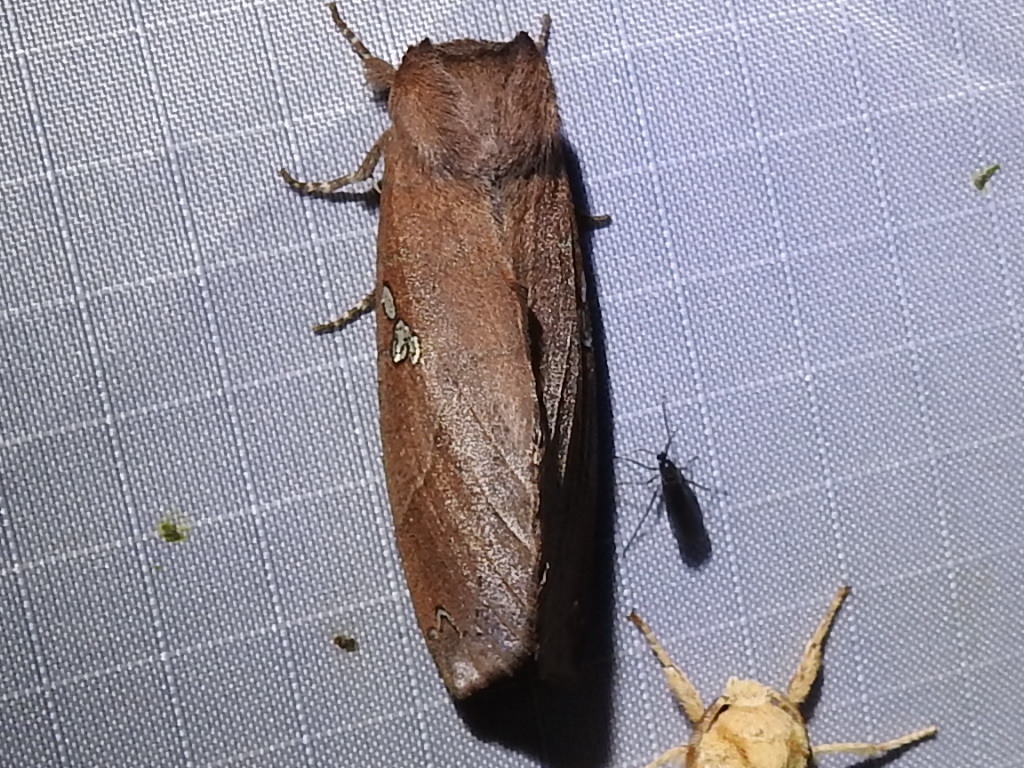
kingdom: Animalia
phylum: Arthropoda
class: Insecta
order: Lepidoptera
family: Notodontidae
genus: Pseudhapigia
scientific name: Pseudhapigia brunnea
